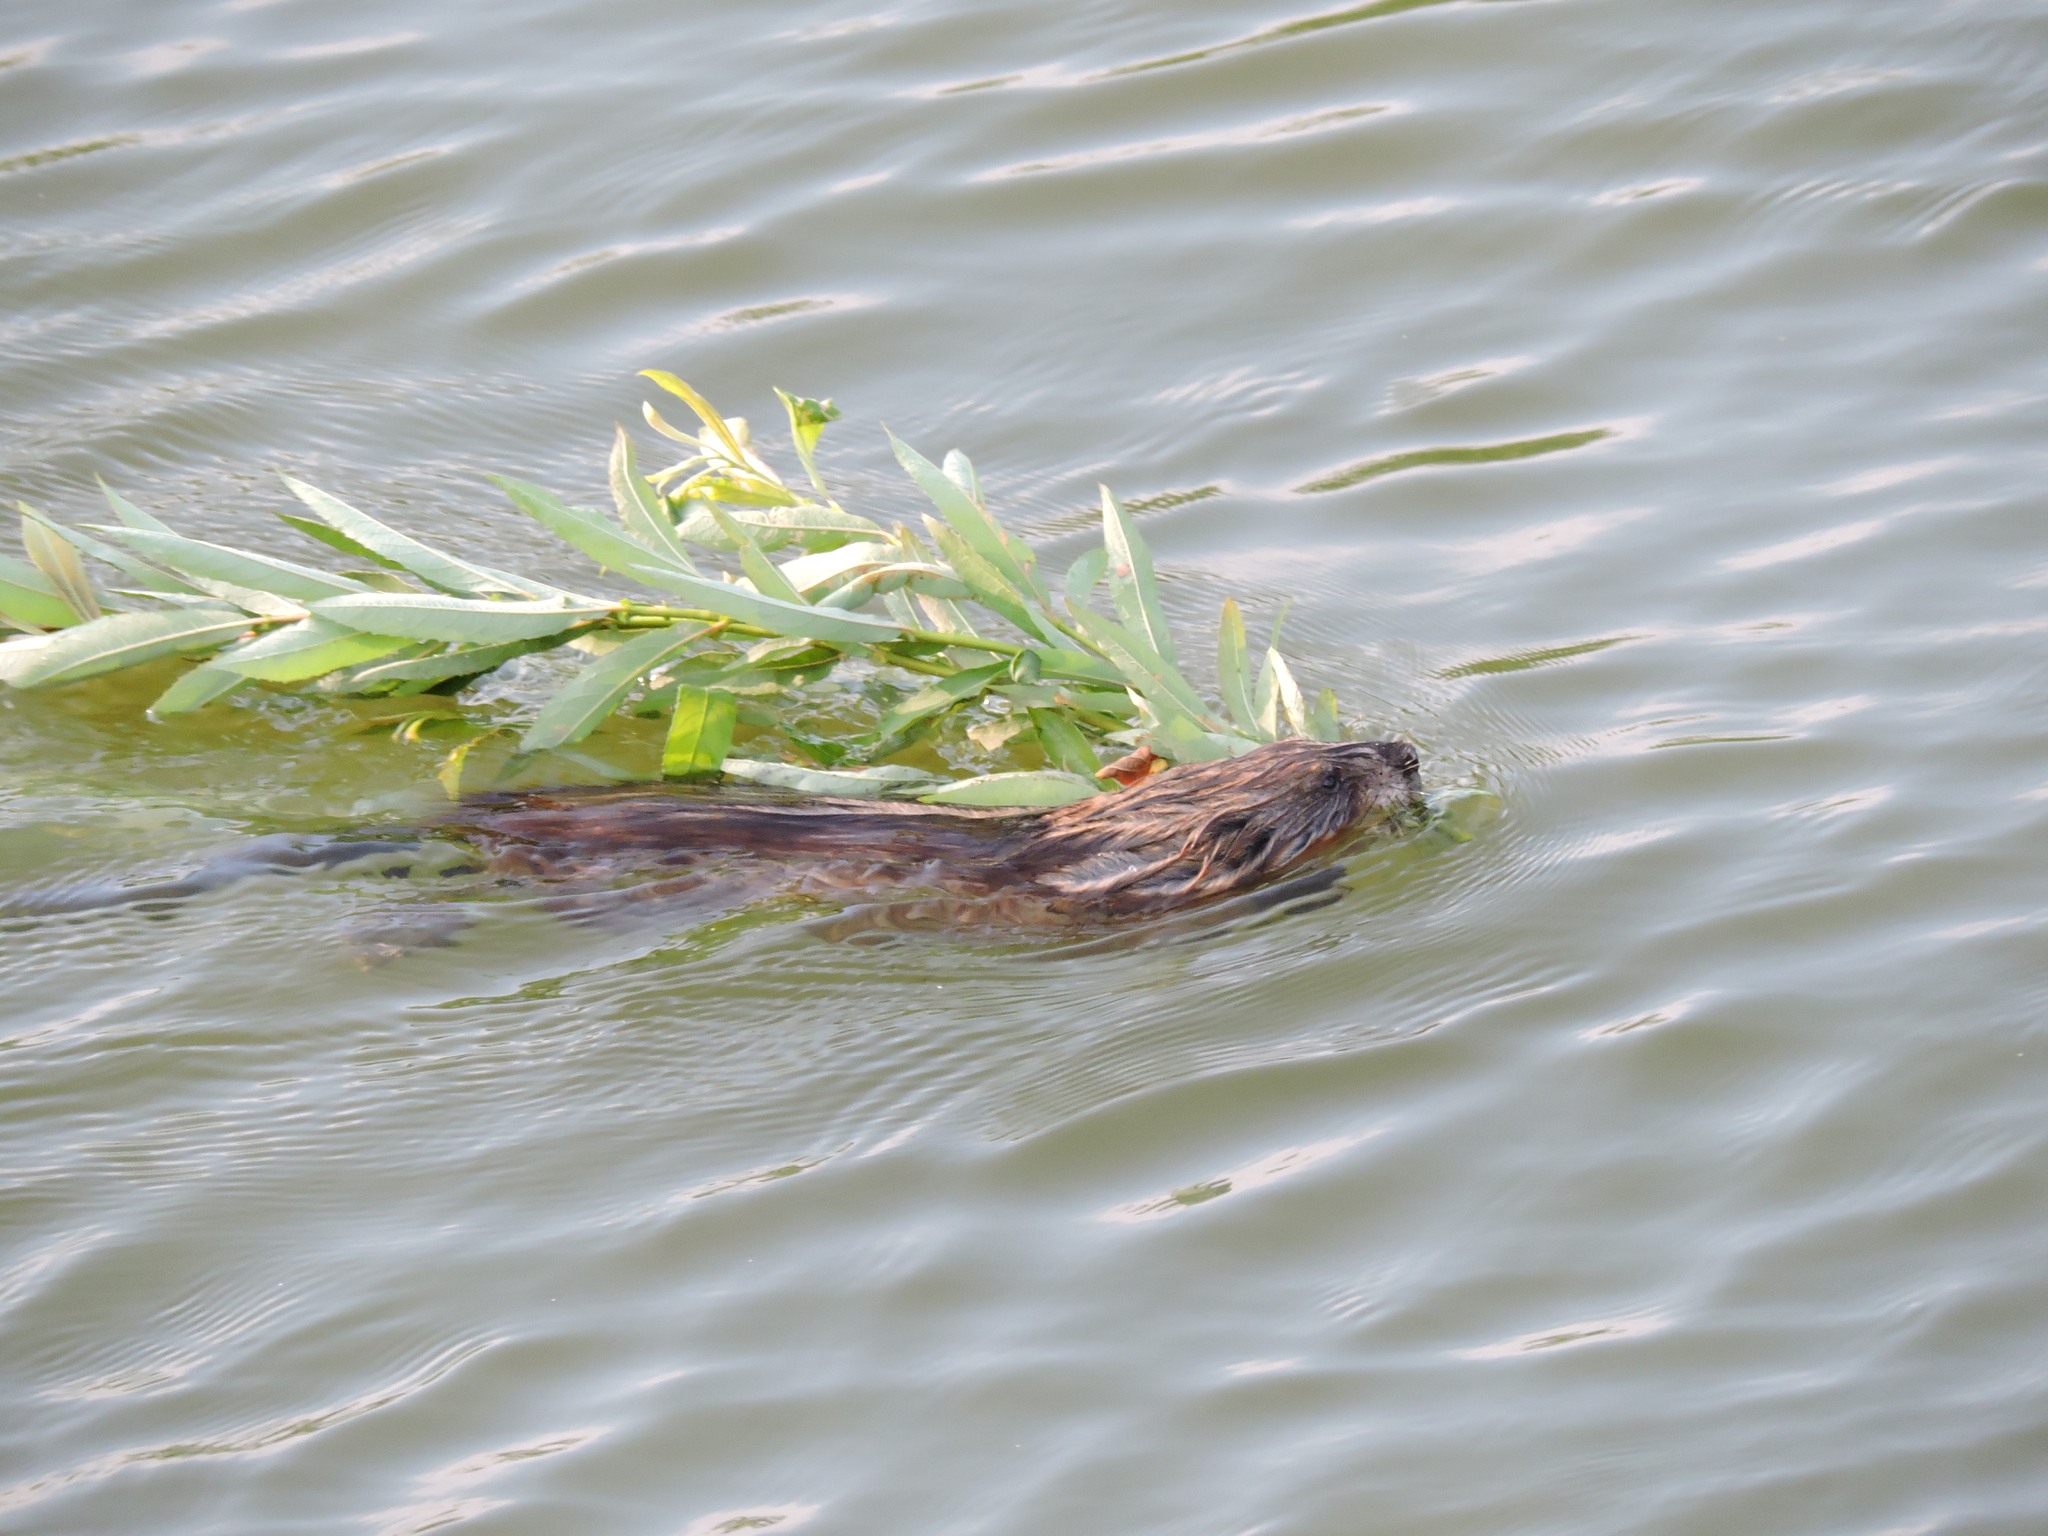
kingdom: Animalia
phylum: Chordata
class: Mammalia
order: Rodentia
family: Cricetidae
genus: Ondatra
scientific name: Ondatra zibethicus
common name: Muskrat
